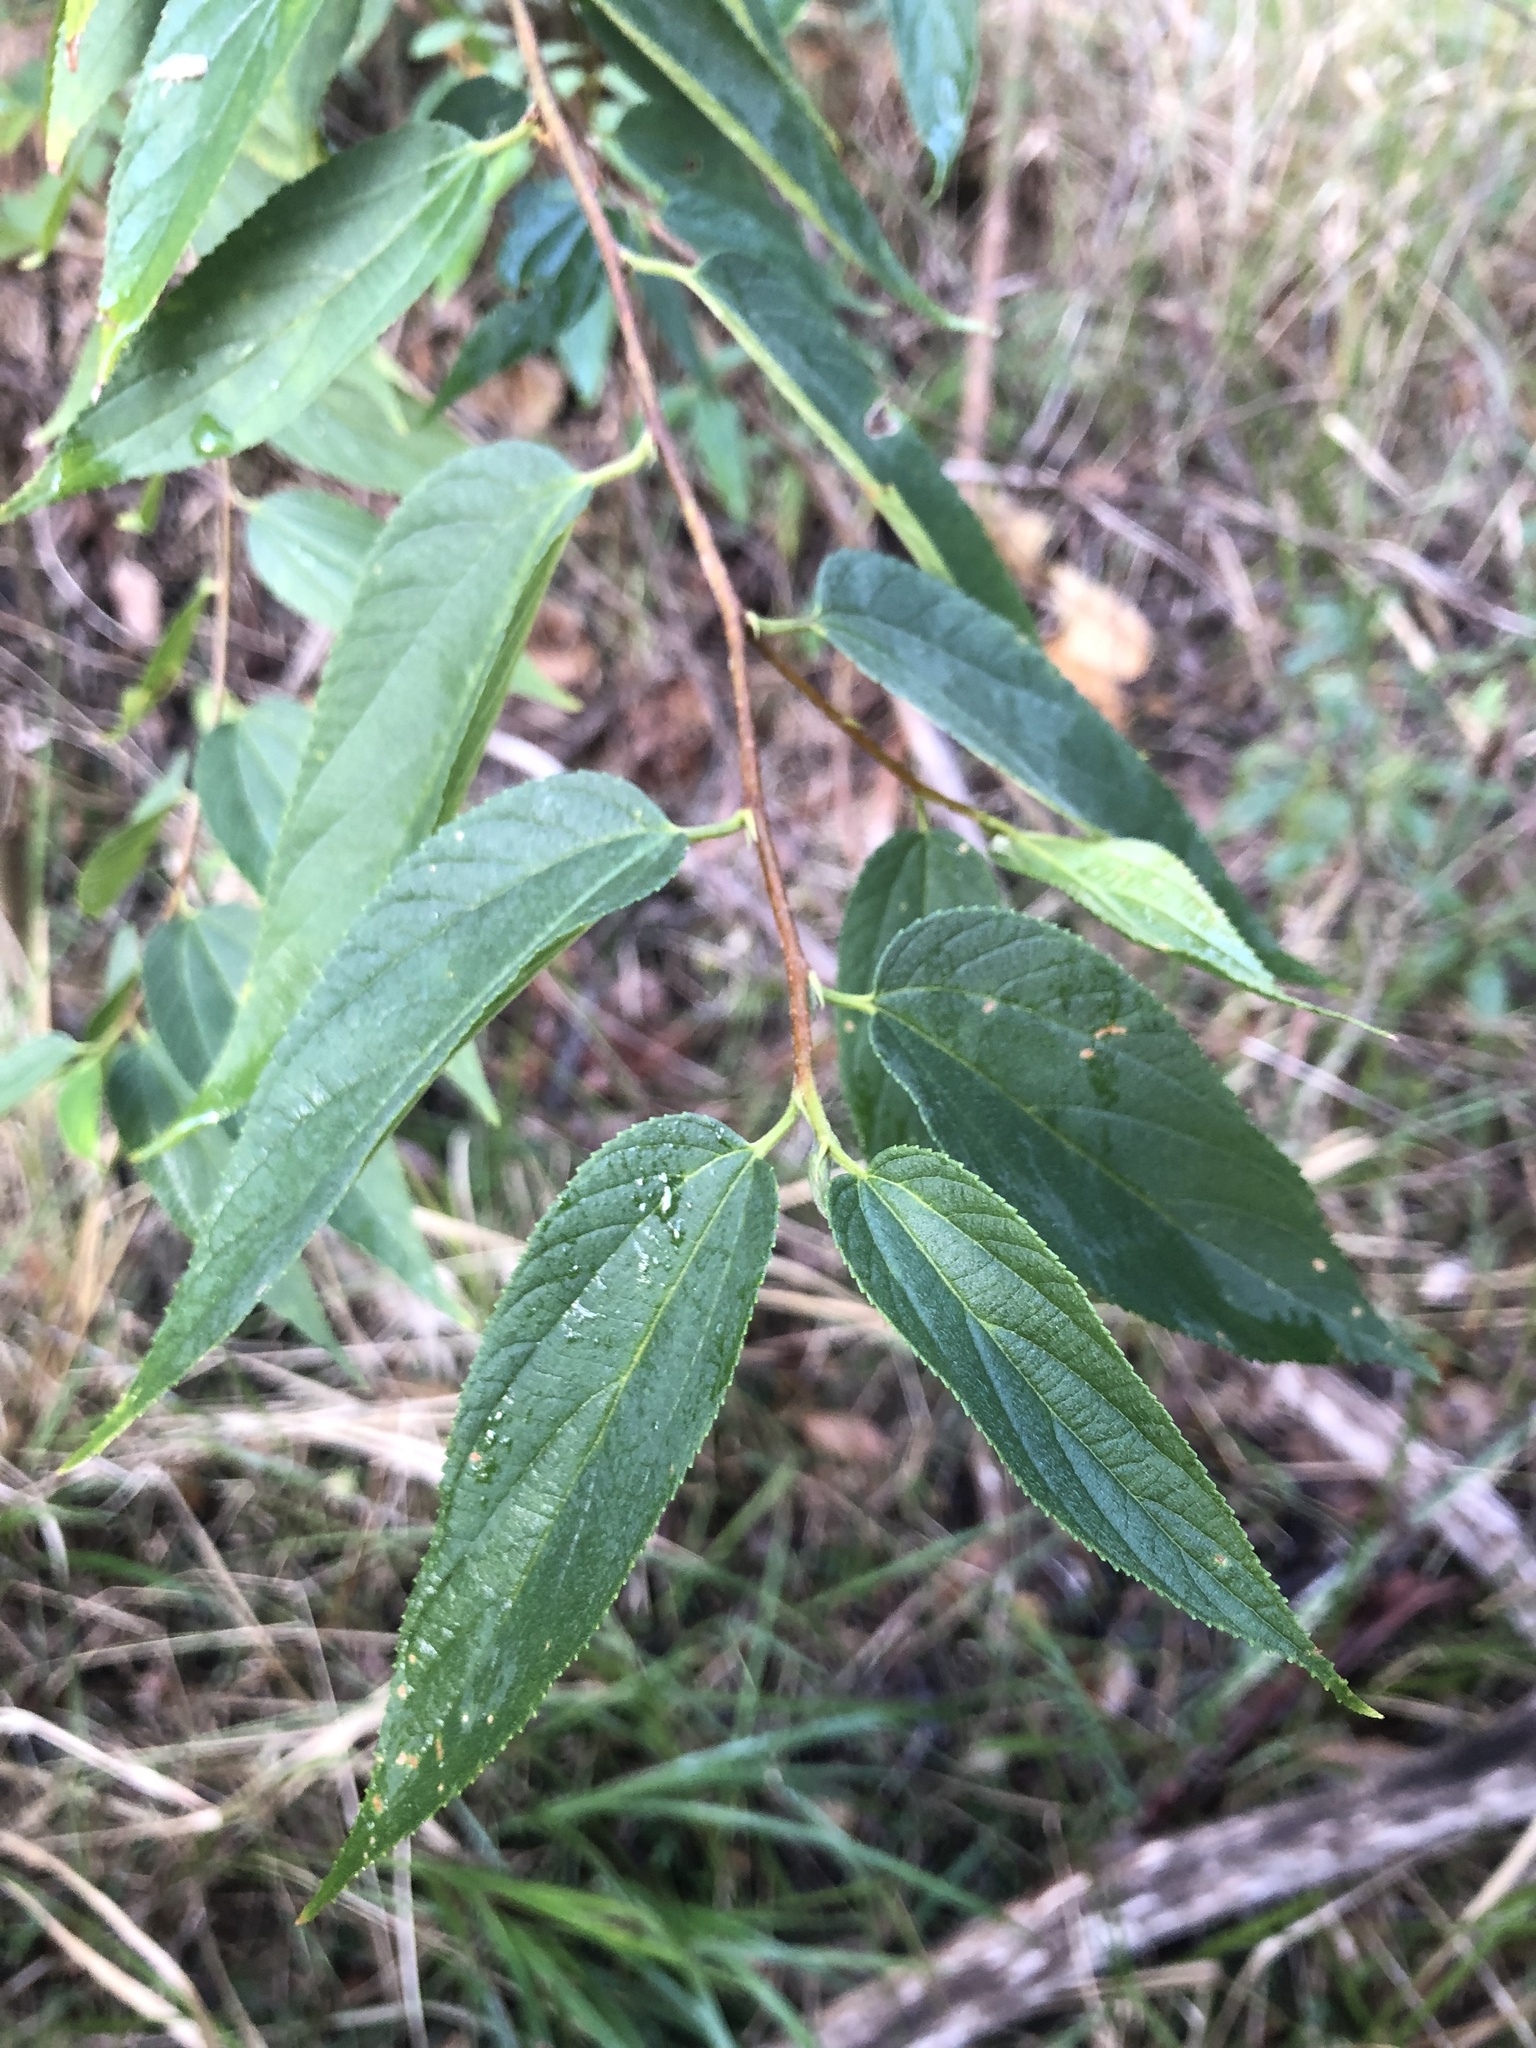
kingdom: Plantae
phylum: Tracheophyta
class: Magnoliopsida
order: Rosales
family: Cannabaceae
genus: Trema
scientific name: Trema tomentosum
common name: Peach-leaf-poisonbush
